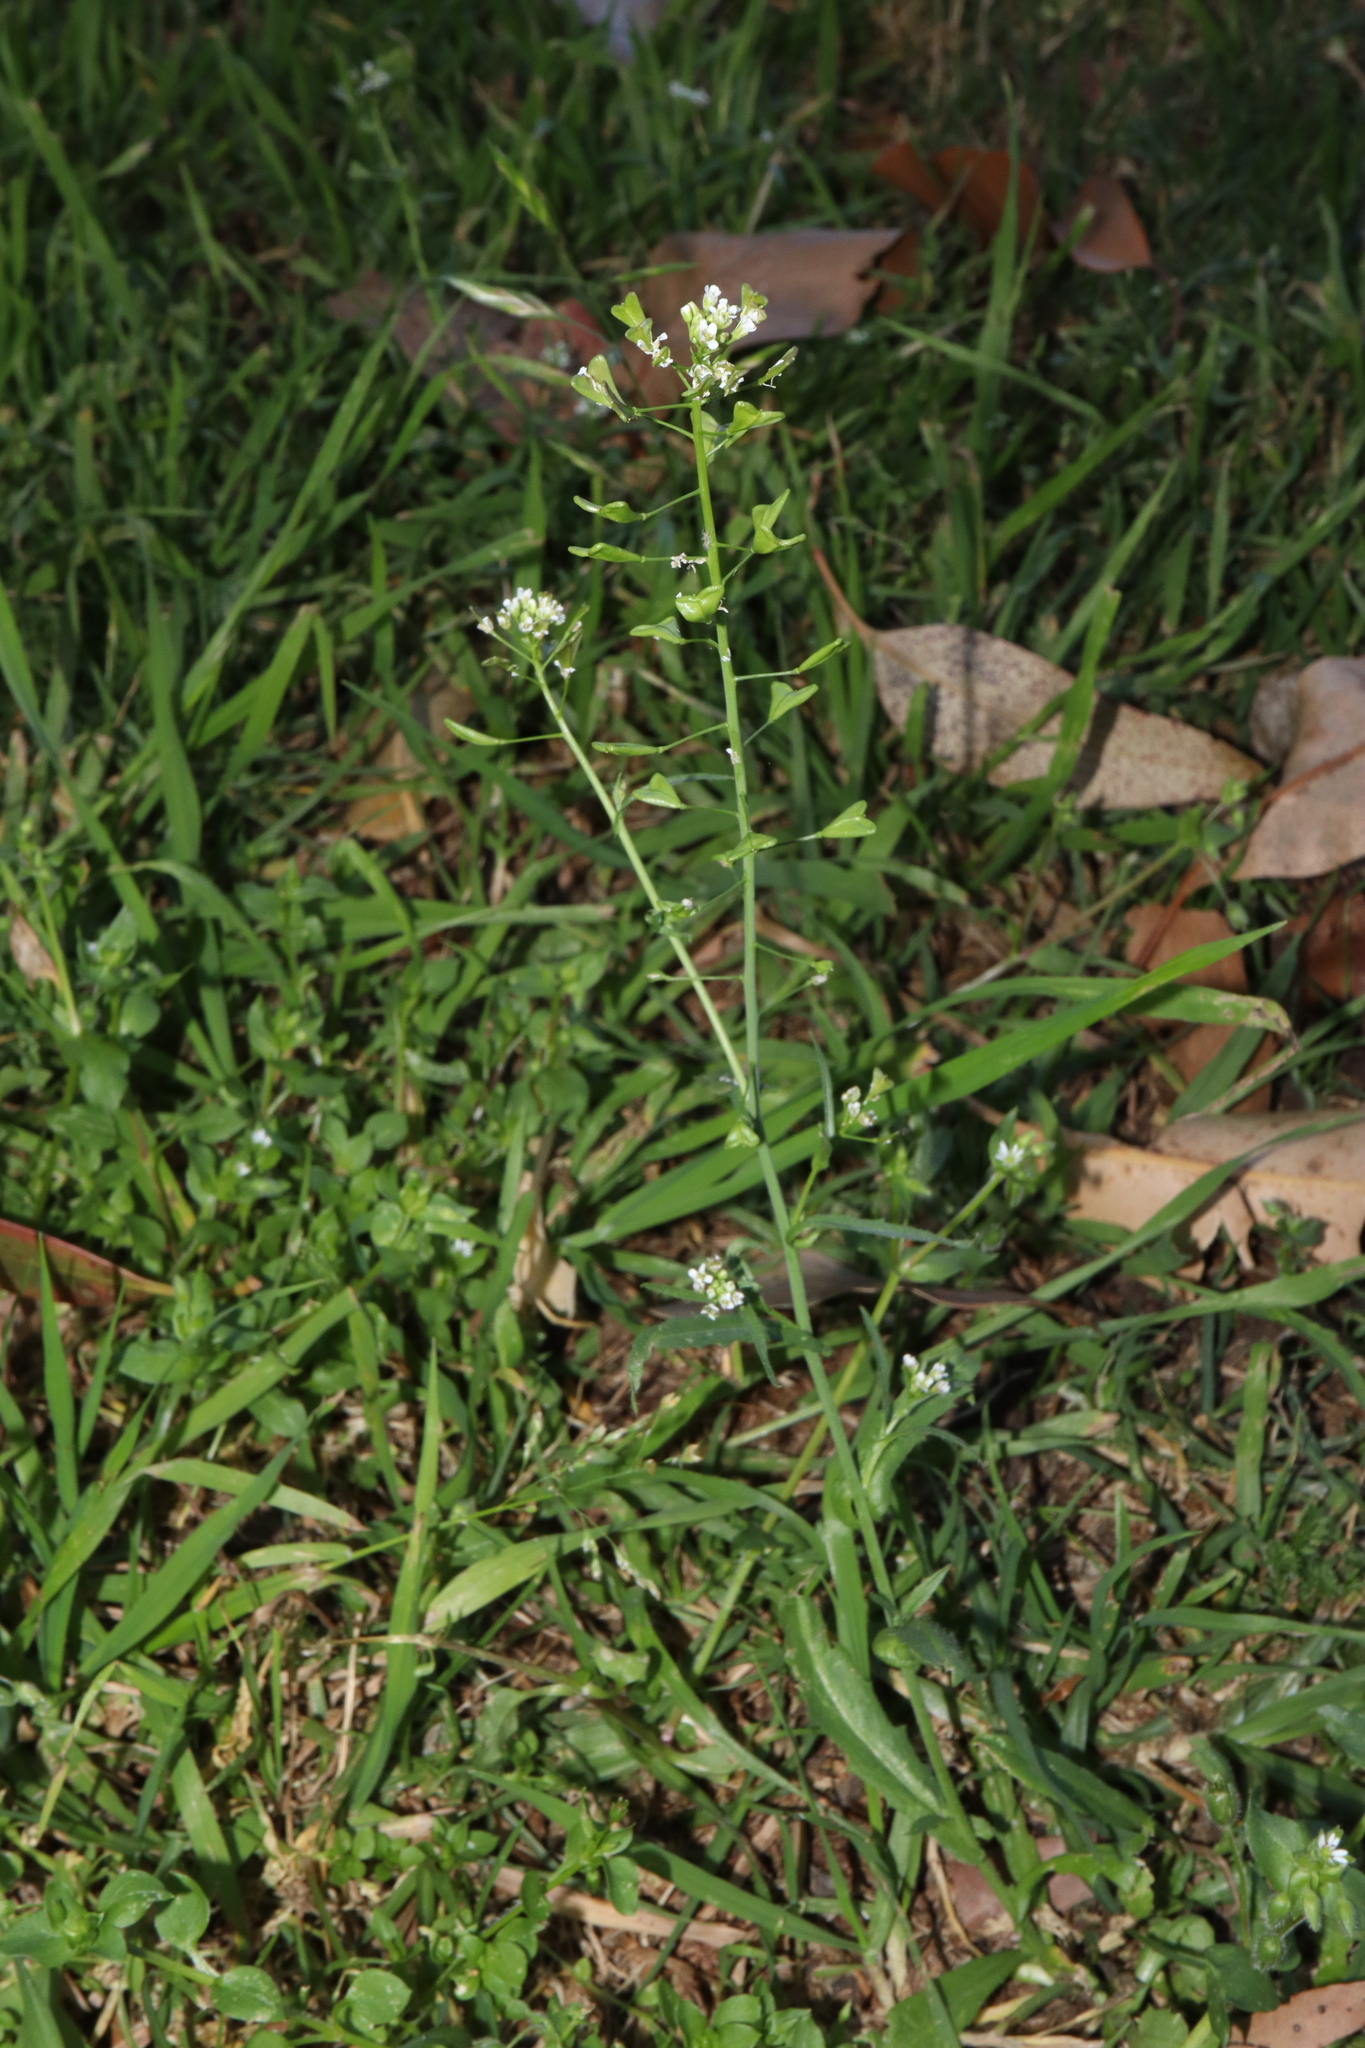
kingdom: Plantae
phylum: Tracheophyta
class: Magnoliopsida
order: Brassicales
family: Brassicaceae
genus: Capsella
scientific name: Capsella bursa-pastoris
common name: Shepherd's purse
